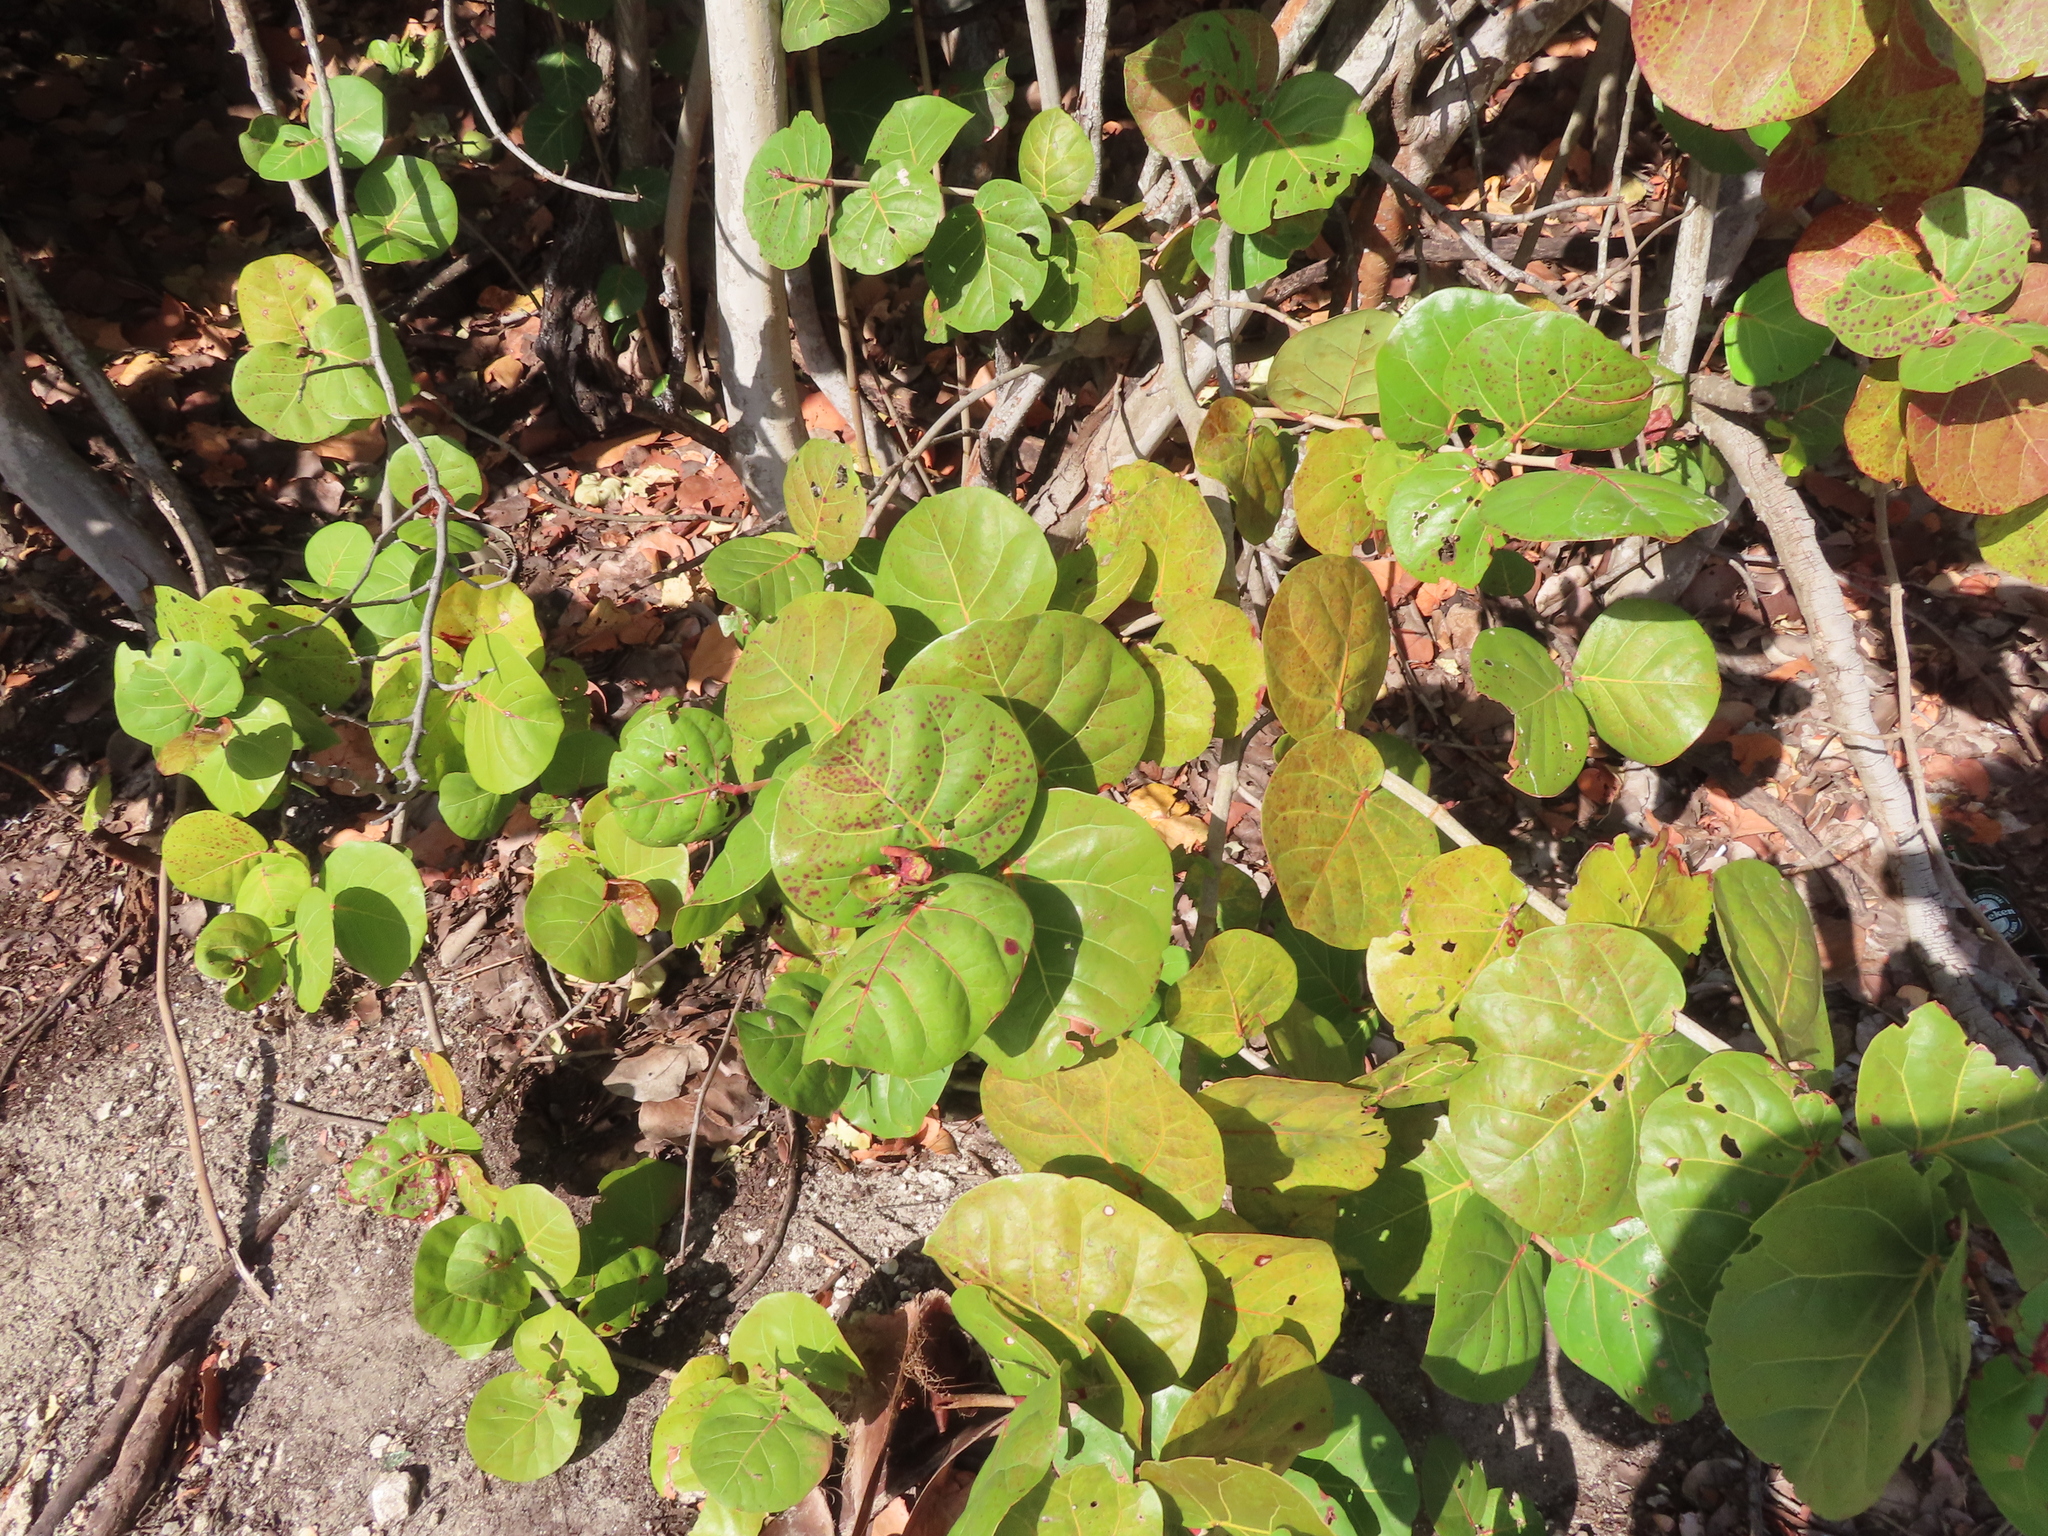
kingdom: Plantae
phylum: Tracheophyta
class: Magnoliopsida
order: Caryophyllales
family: Polygonaceae
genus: Coccoloba
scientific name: Coccoloba uvifera
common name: Seagrape
